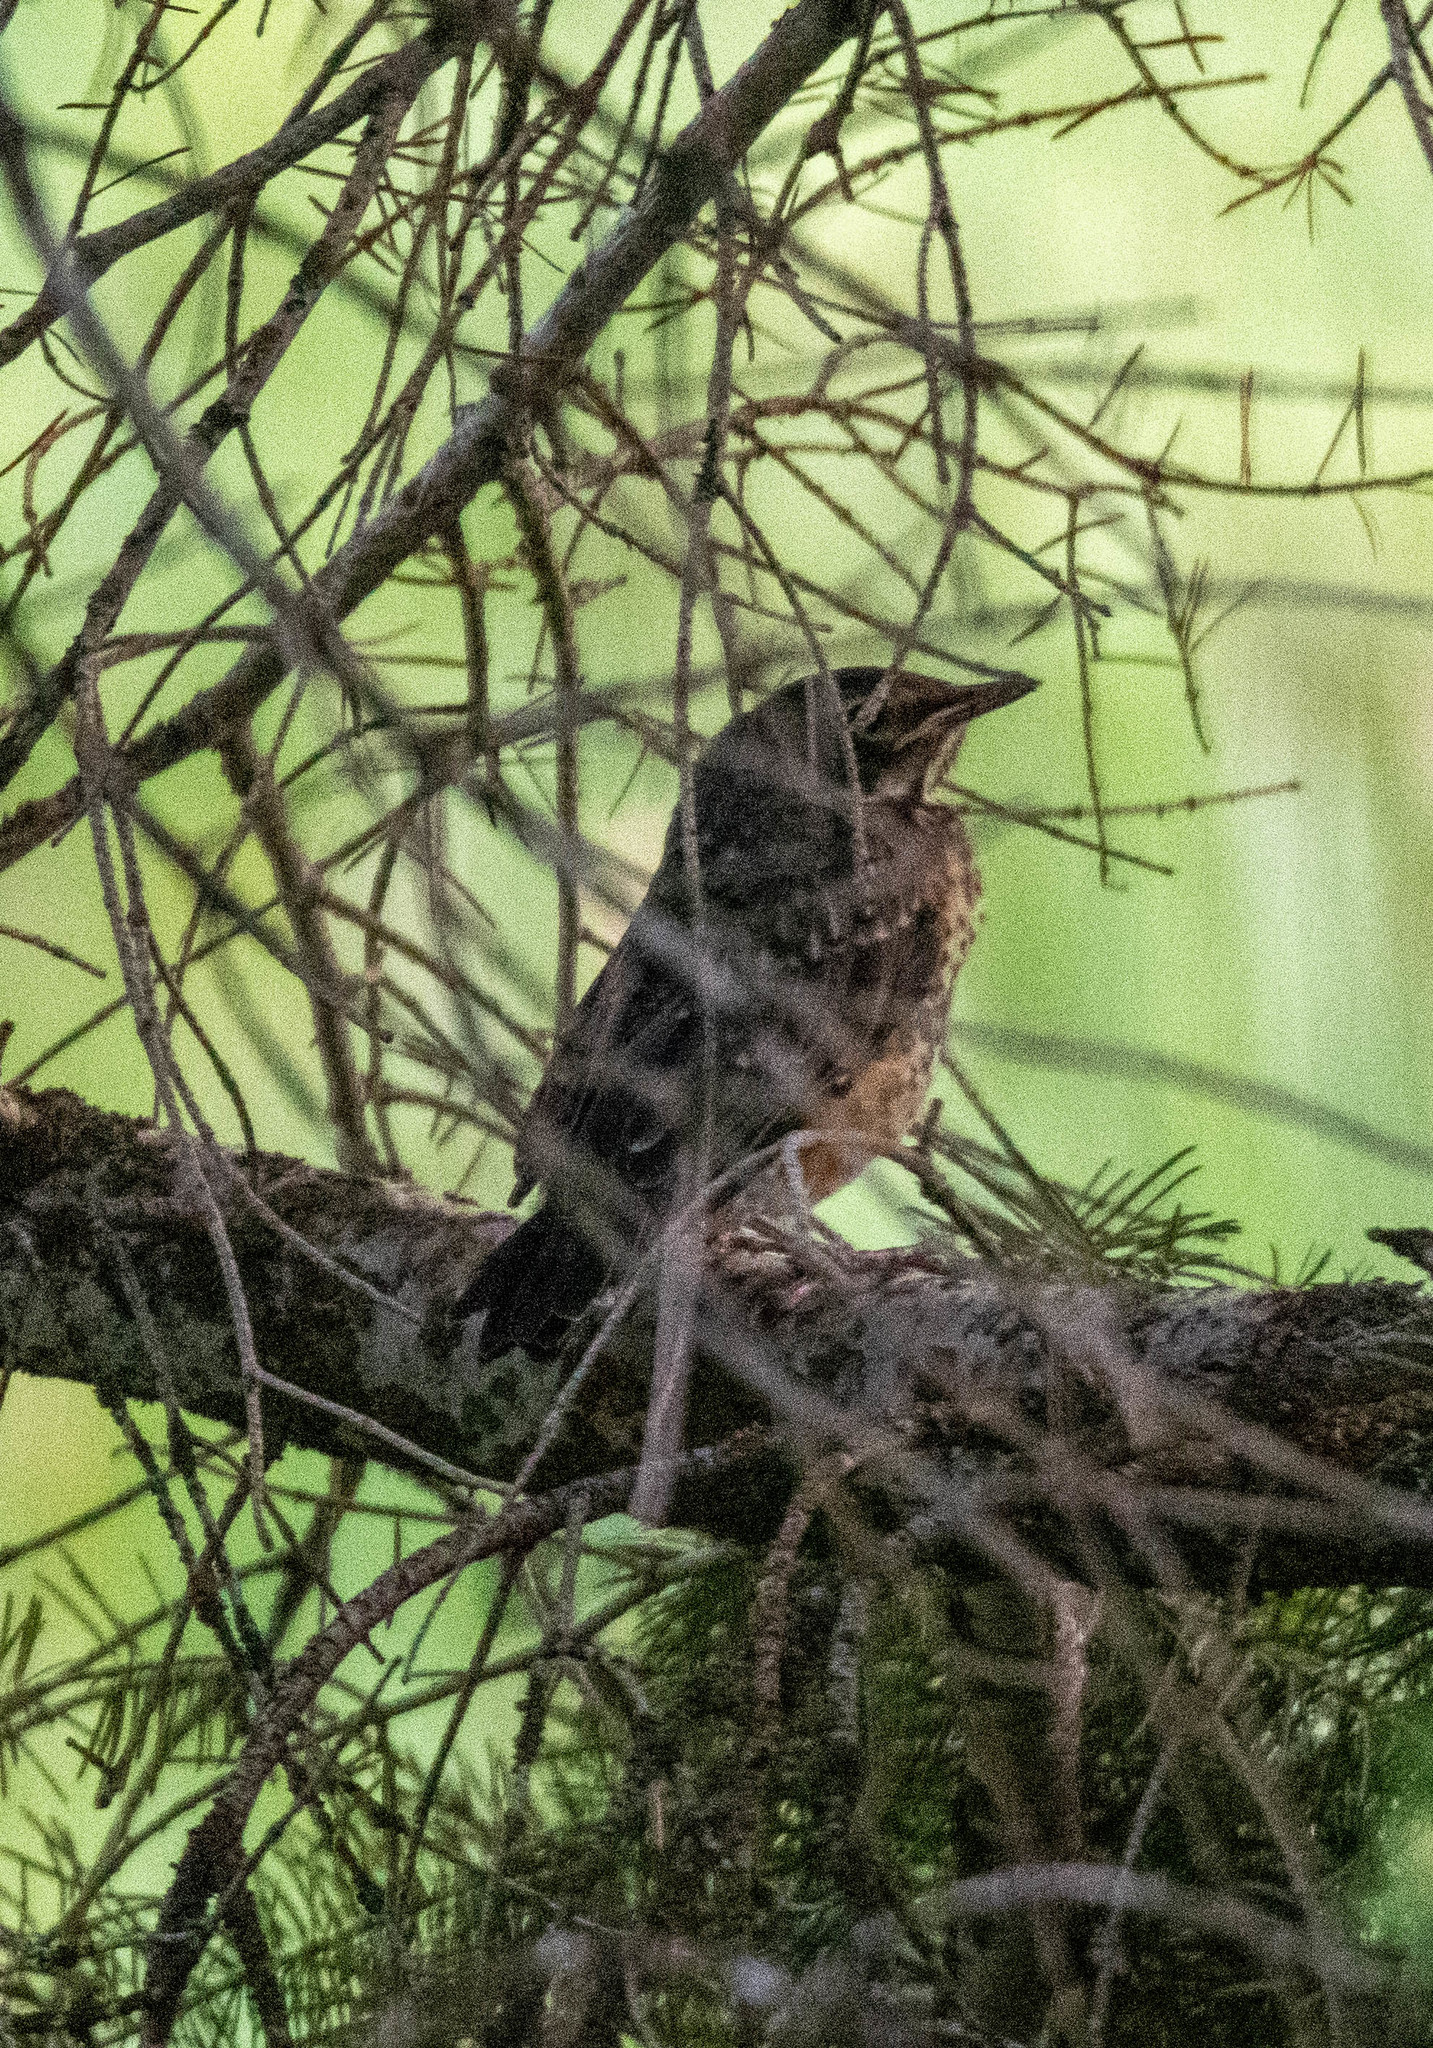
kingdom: Animalia
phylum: Chordata
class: Aves
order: Passeriformes
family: Turdidae
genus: Turdus
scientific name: Turdus migratorius
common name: American robin
